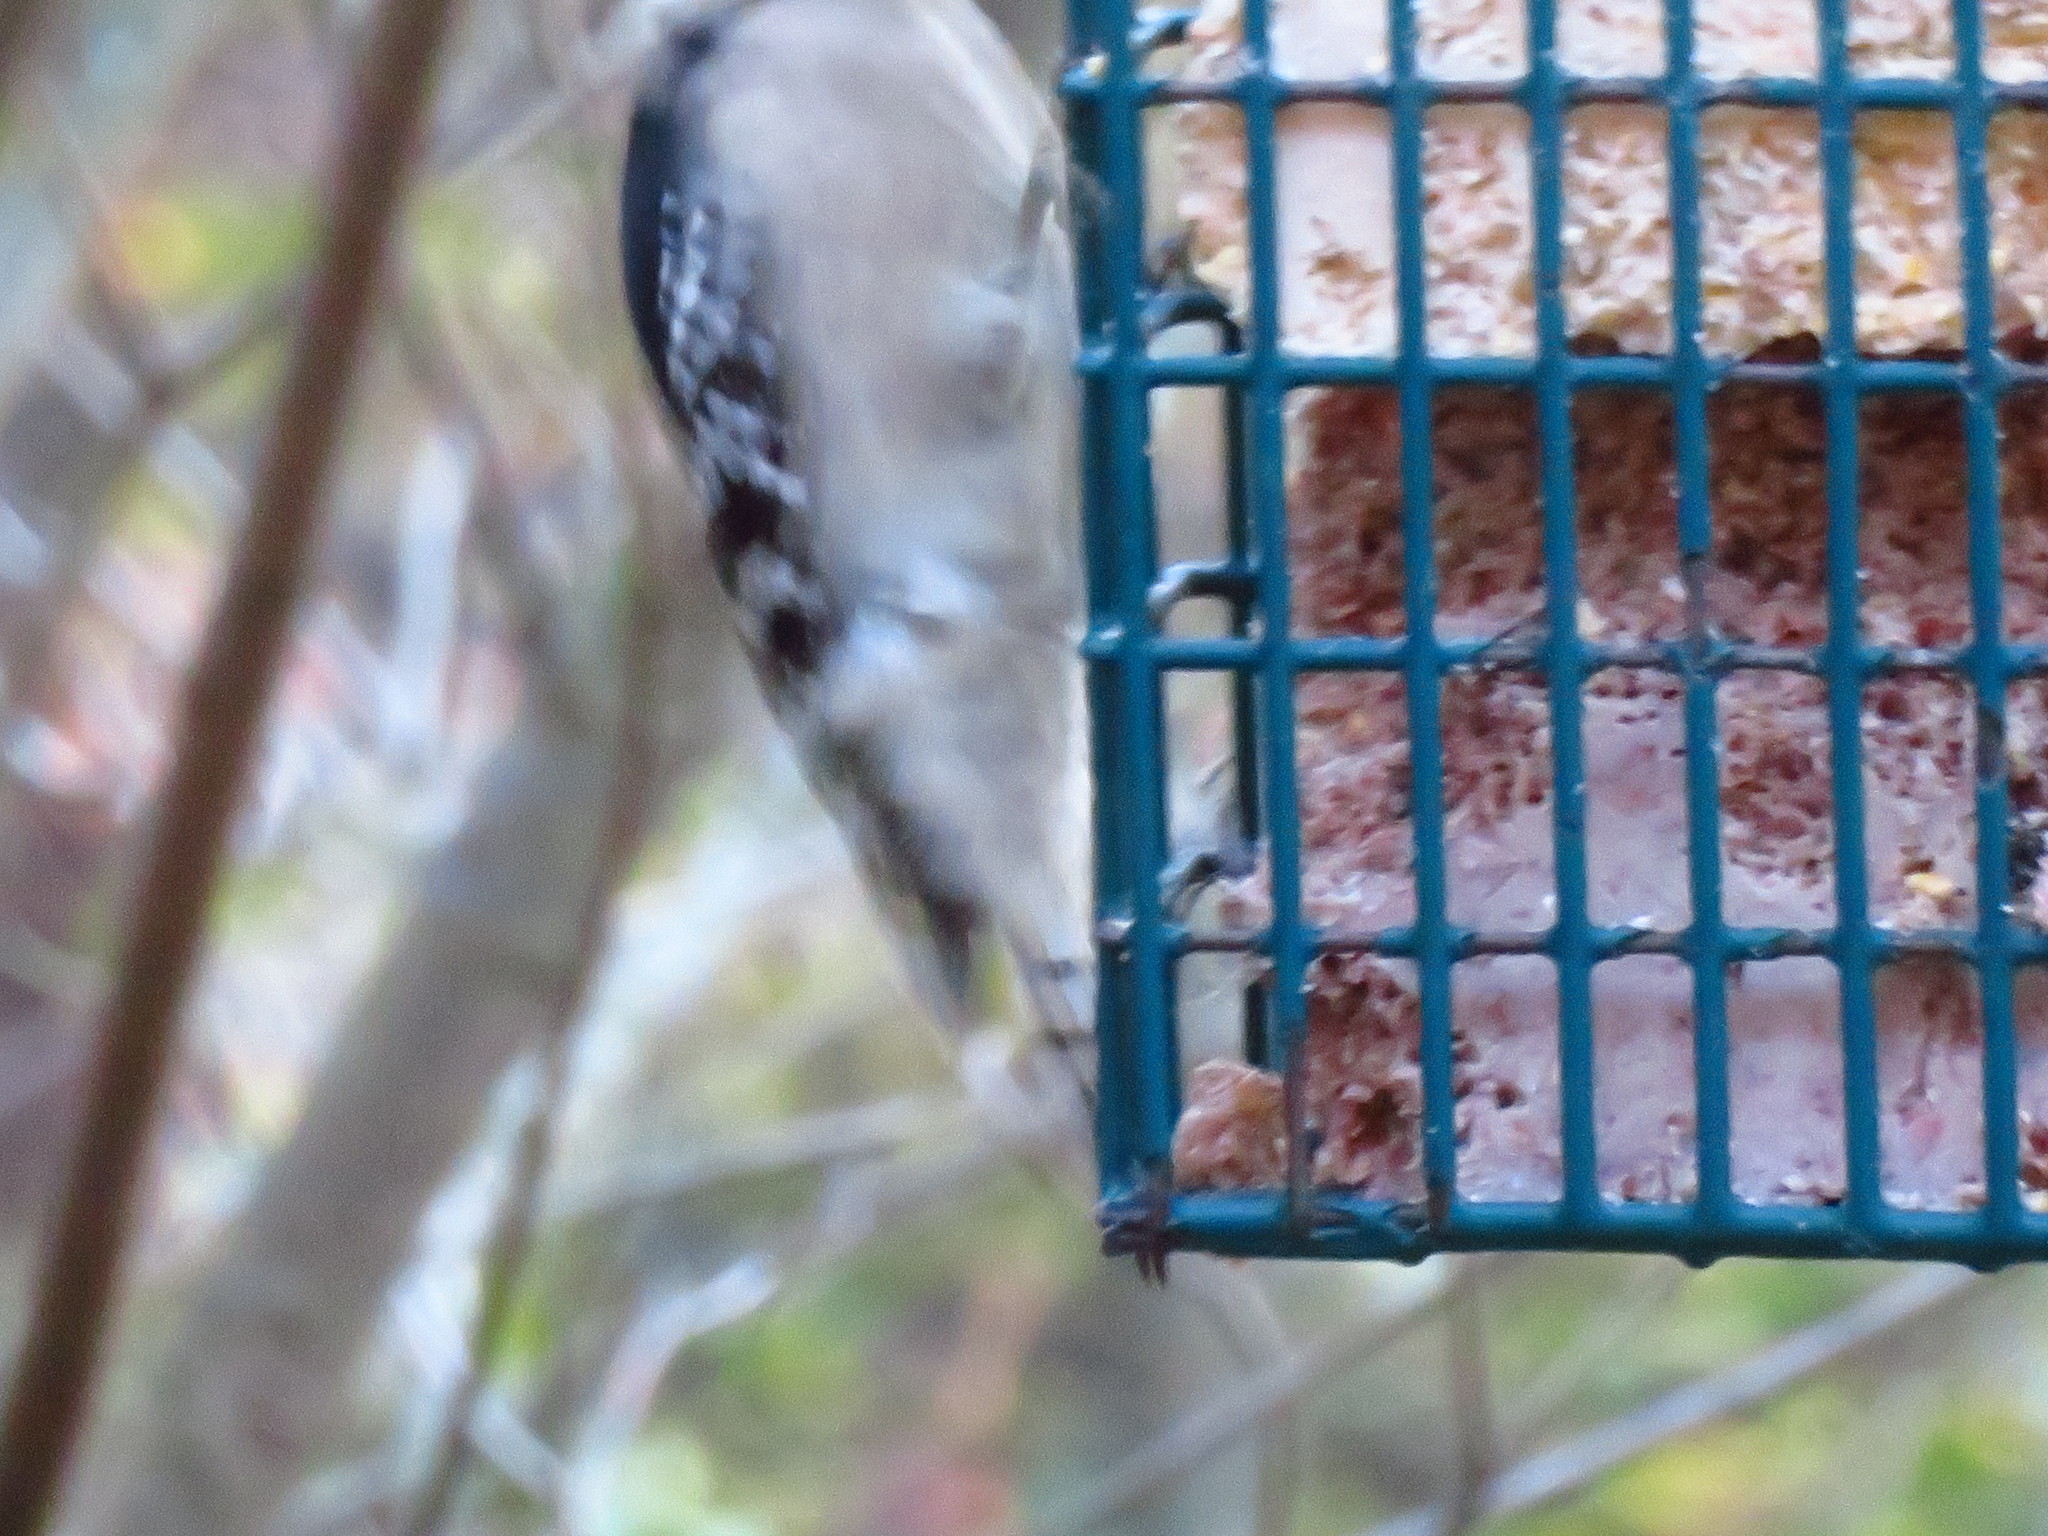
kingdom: Animalia
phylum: Chordata
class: Aves
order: Piciformes
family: Picidae
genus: Dryobates
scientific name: Dryobates pubescens
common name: Downy woodpecker
